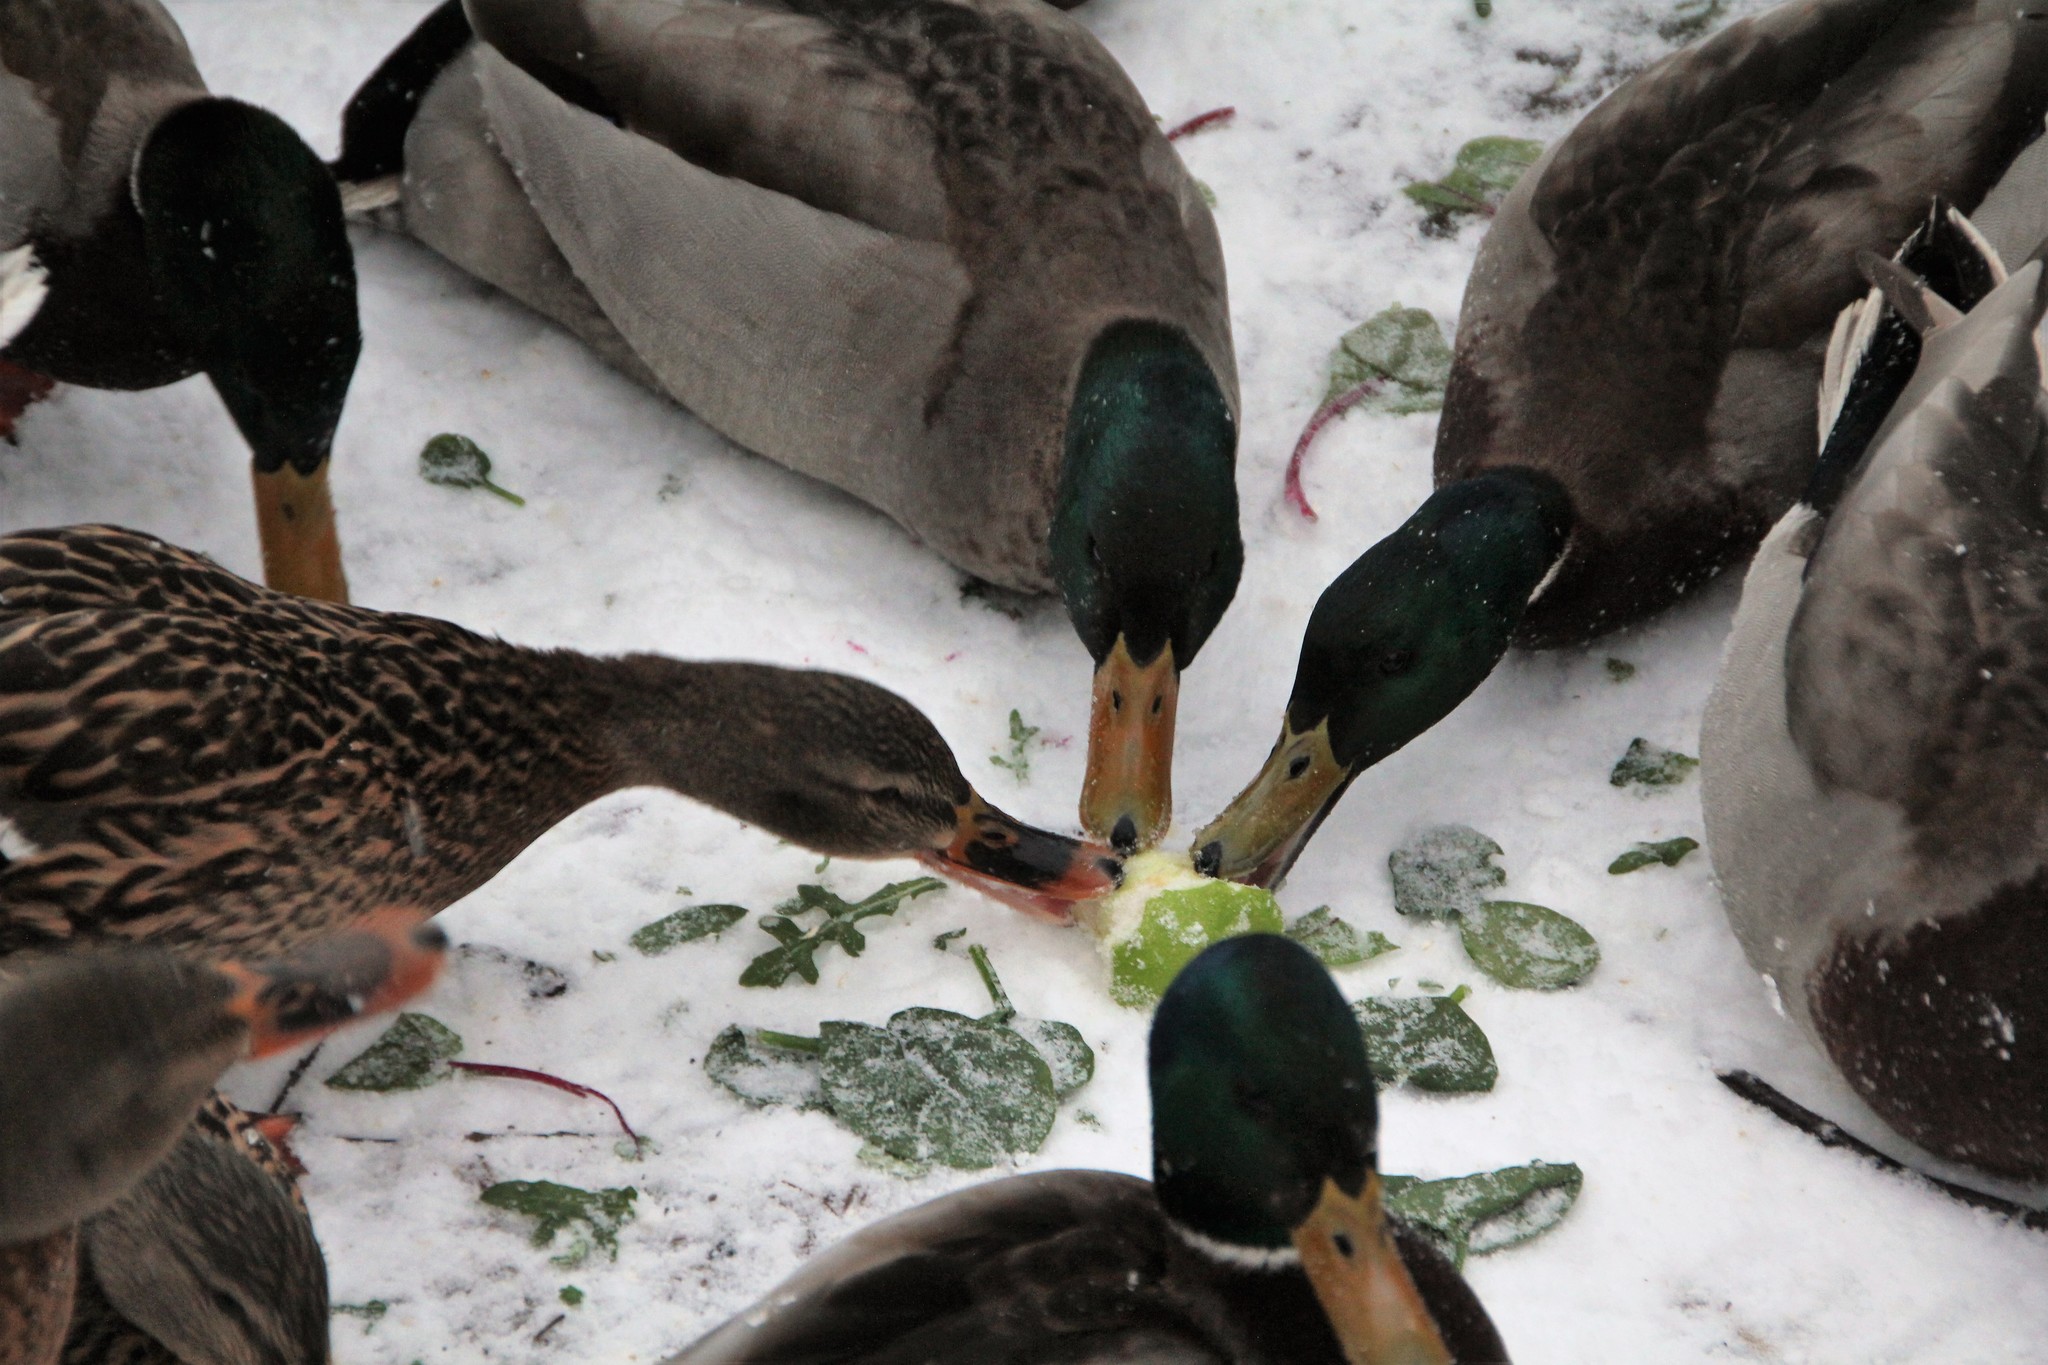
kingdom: Animalia
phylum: Chordata
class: Aves
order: Anseriformes
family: Anatidae
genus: Anas
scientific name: Anas platyrhynchos
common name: Mallard
